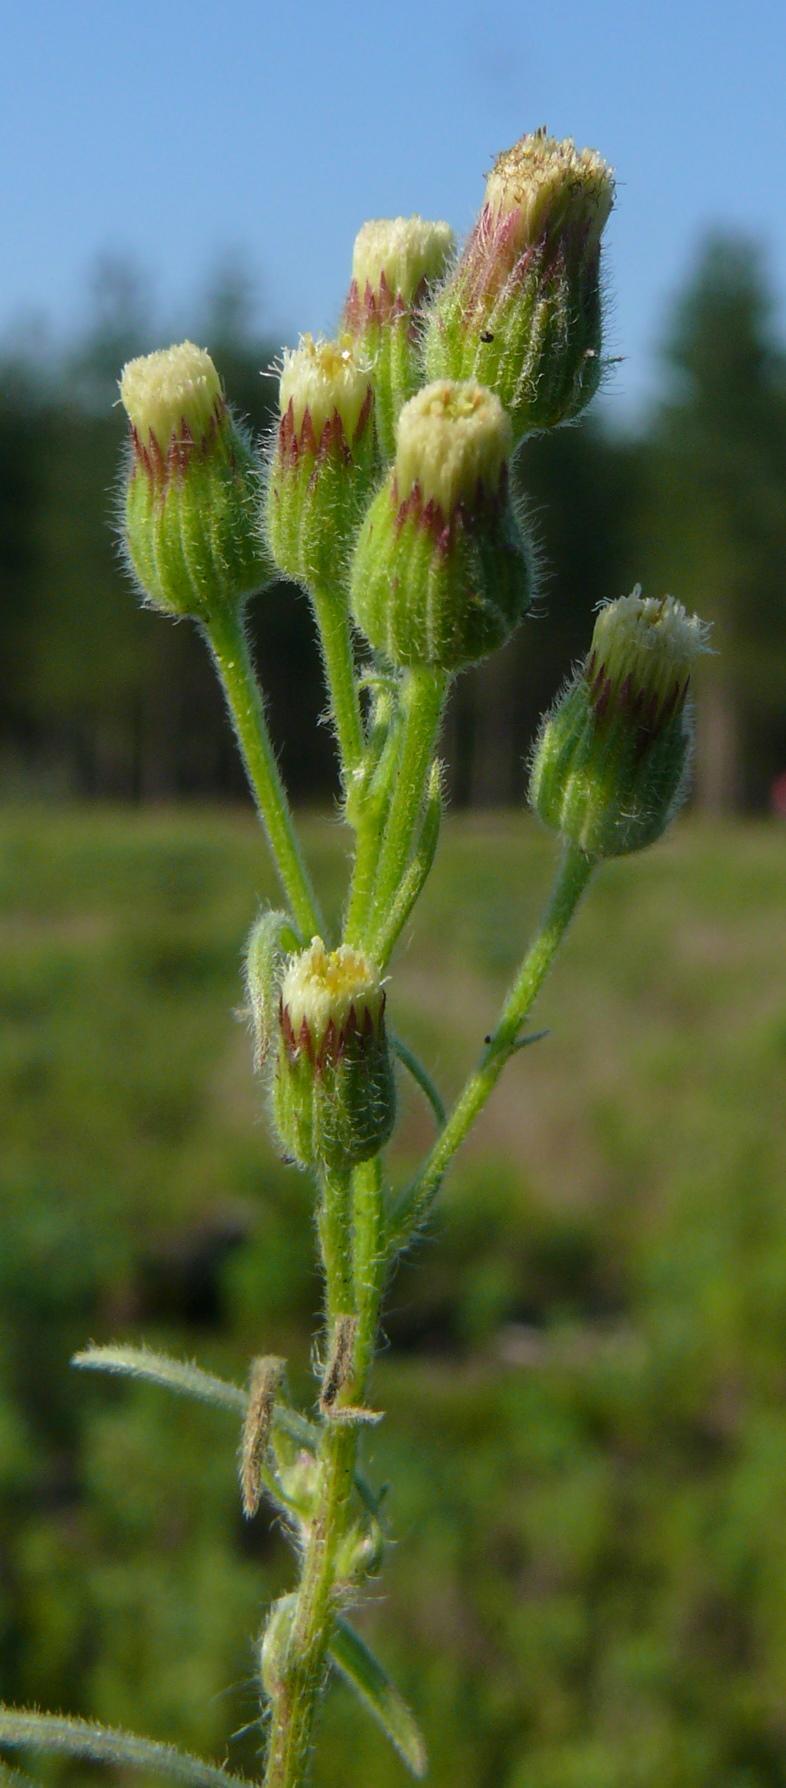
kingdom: Plantae
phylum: Tracheophyta
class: Magnoliopsida
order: Asterales
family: Asteraceae
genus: Erigeron
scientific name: Erigeron bonariensis
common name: Argentine fleabane
